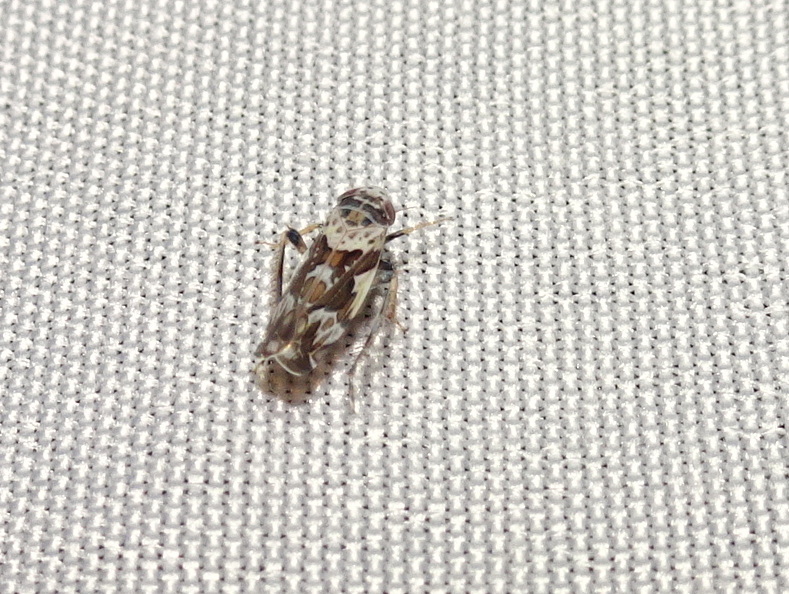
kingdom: Animalia
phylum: Arthropoda
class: Insecta
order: Hemiptera
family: Cicadellidae
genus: Sanctanus
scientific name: Sanctanus cruciatus
